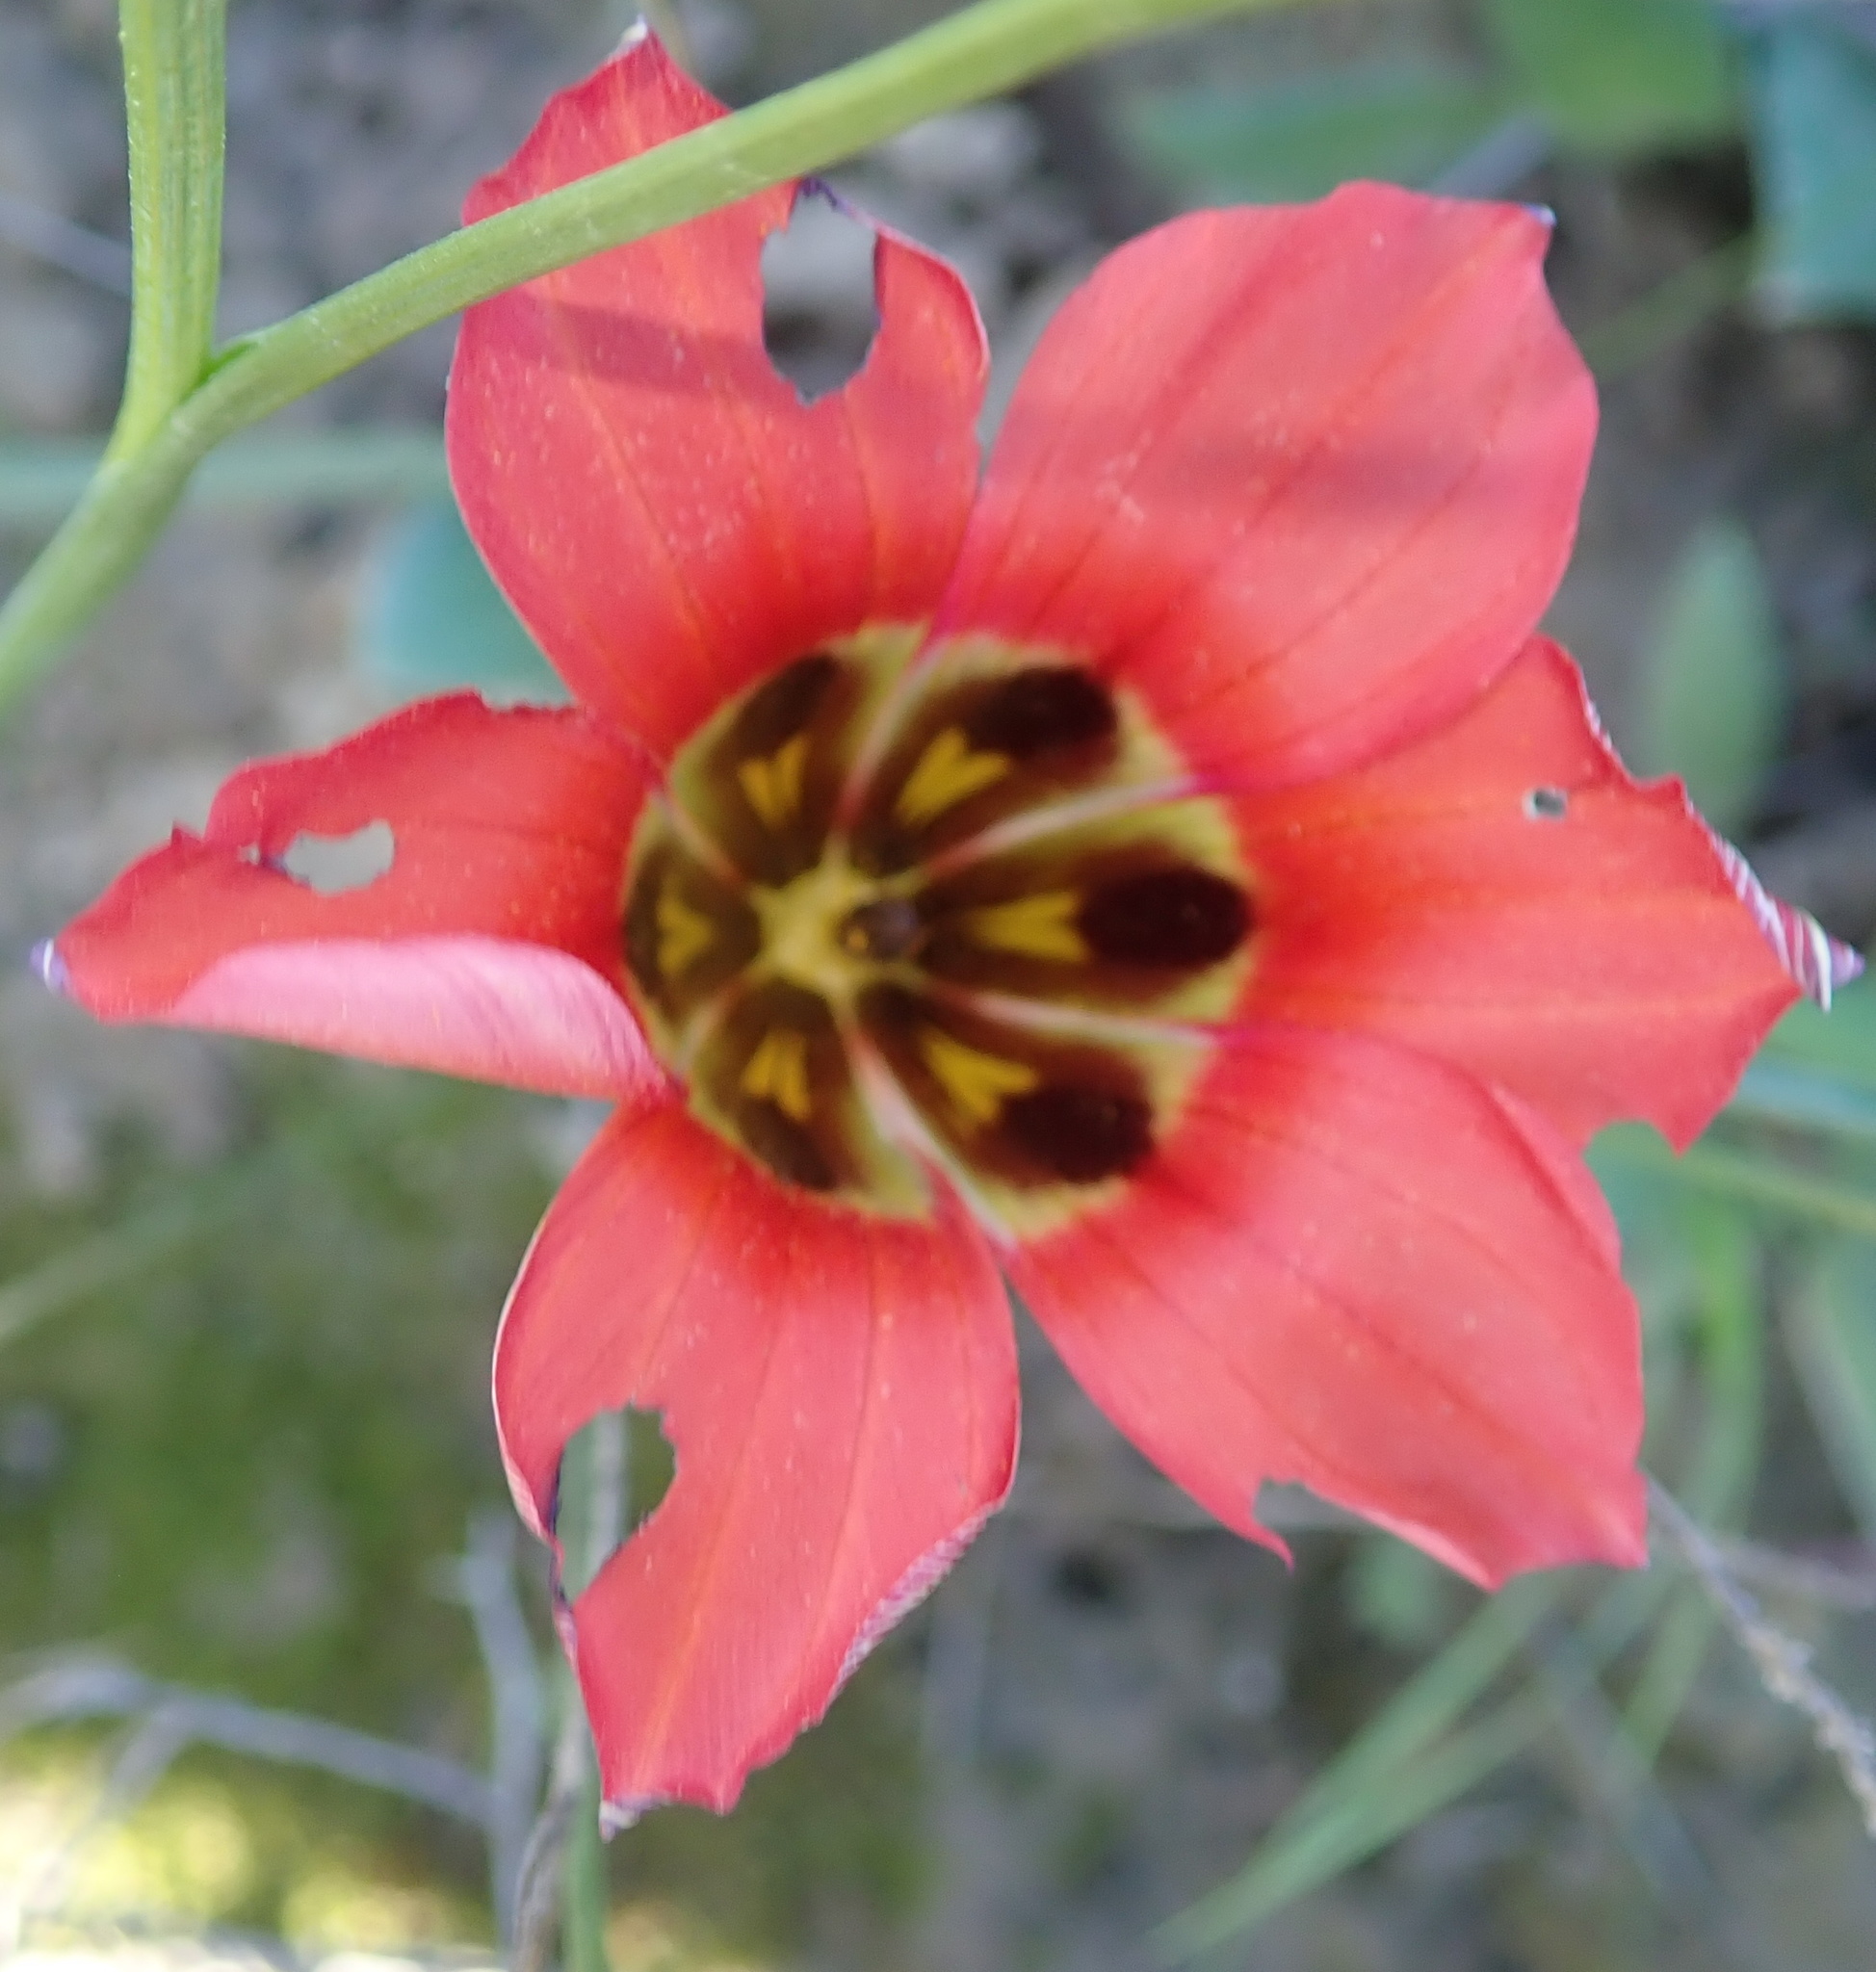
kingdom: Plantae
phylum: Tracheophyta
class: Liliopsida
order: Asparagales
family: Iridaceae
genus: Romulea
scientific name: Romulea sabulosa
